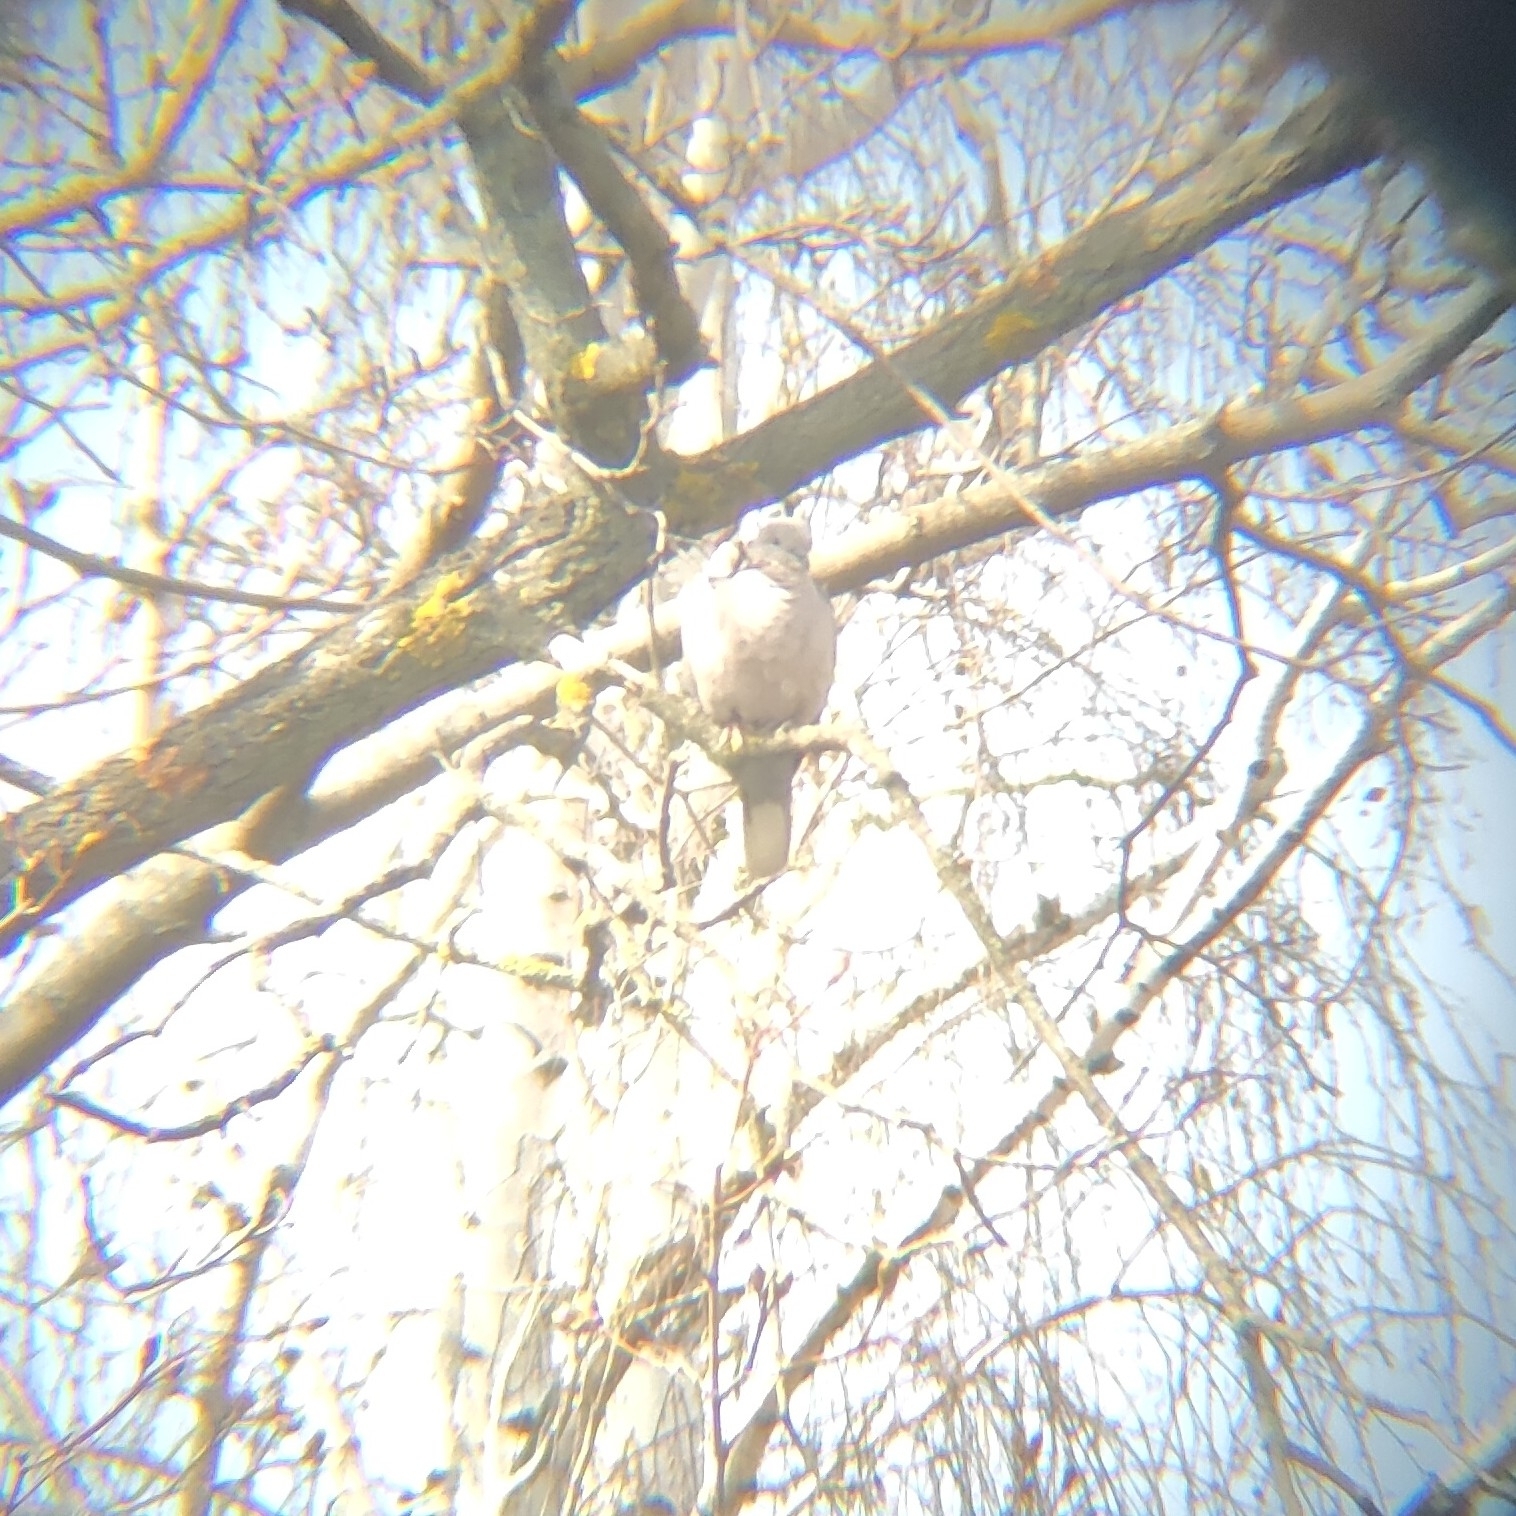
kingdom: Animalia
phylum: Chordata
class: Aves
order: Columbiformes
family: Columbidae
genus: Streptopelia
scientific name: Streptopelia decaocto
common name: Eurasian collared dove
